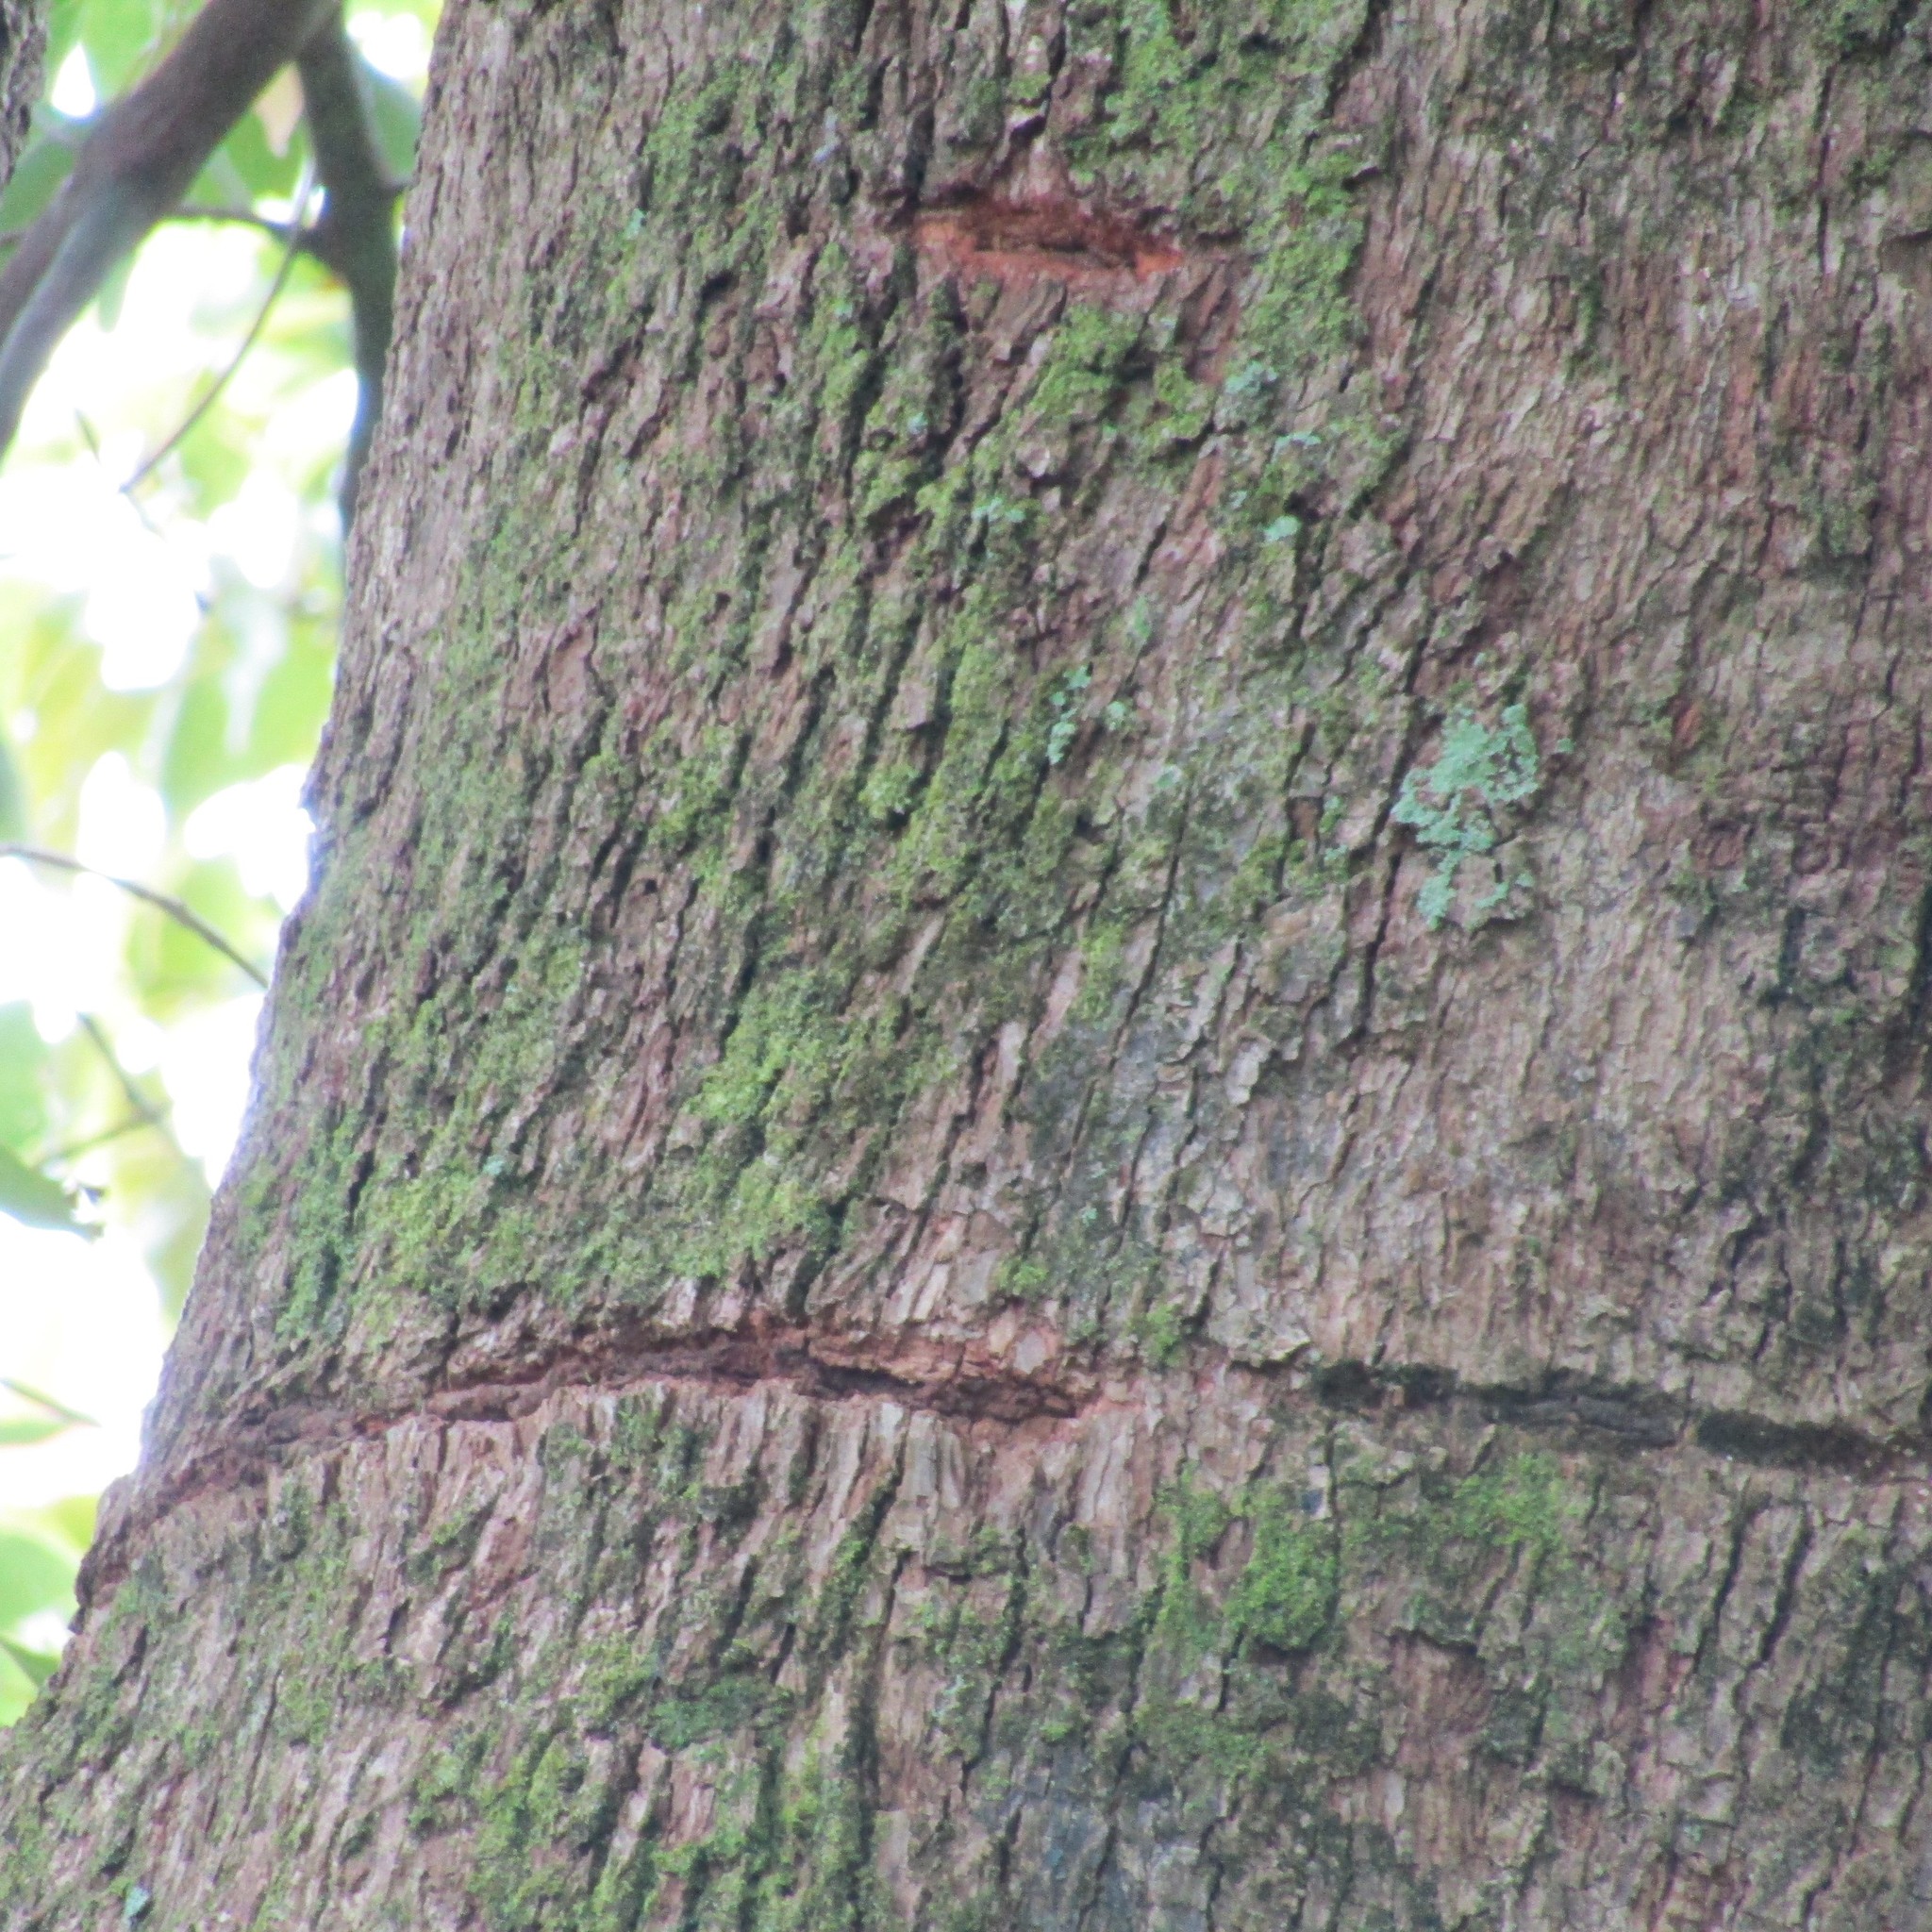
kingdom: Animalia
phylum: Chordata
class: Aves
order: Psittaciformes
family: Psittacidae
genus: Nestor
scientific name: Nestor meridionalis
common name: New zealand kaka
